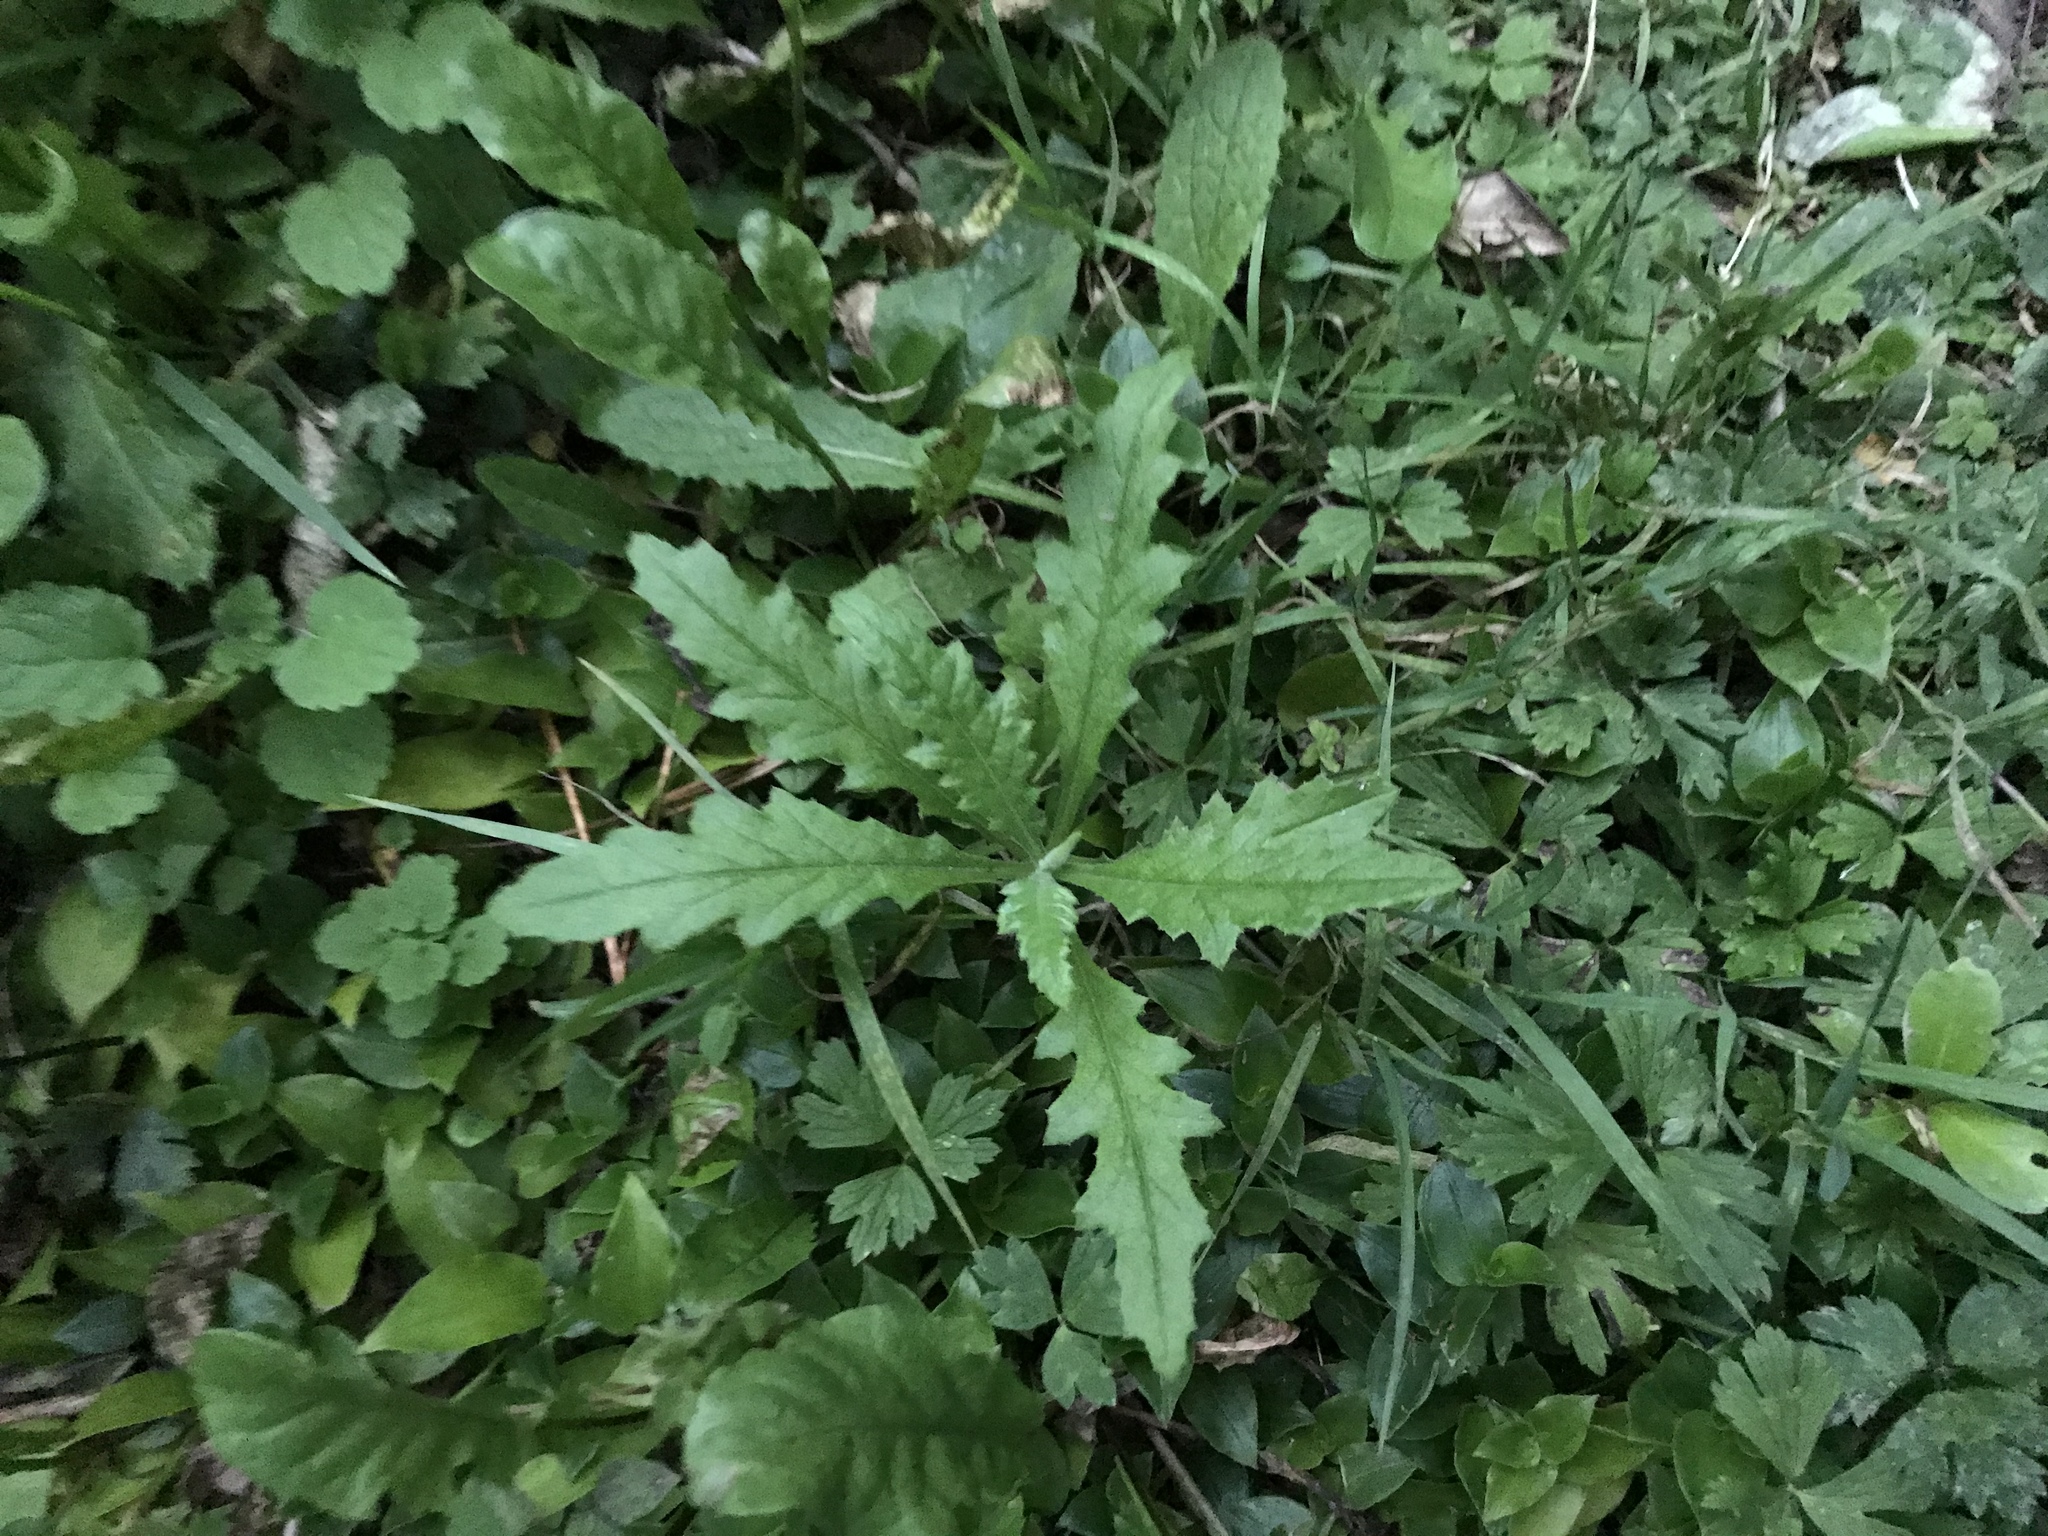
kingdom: Plantae
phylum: Tracheophyta
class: Magnoliopsida
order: Asterales
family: Asteraceae
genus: Senecio
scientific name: Senecio hispidulus
